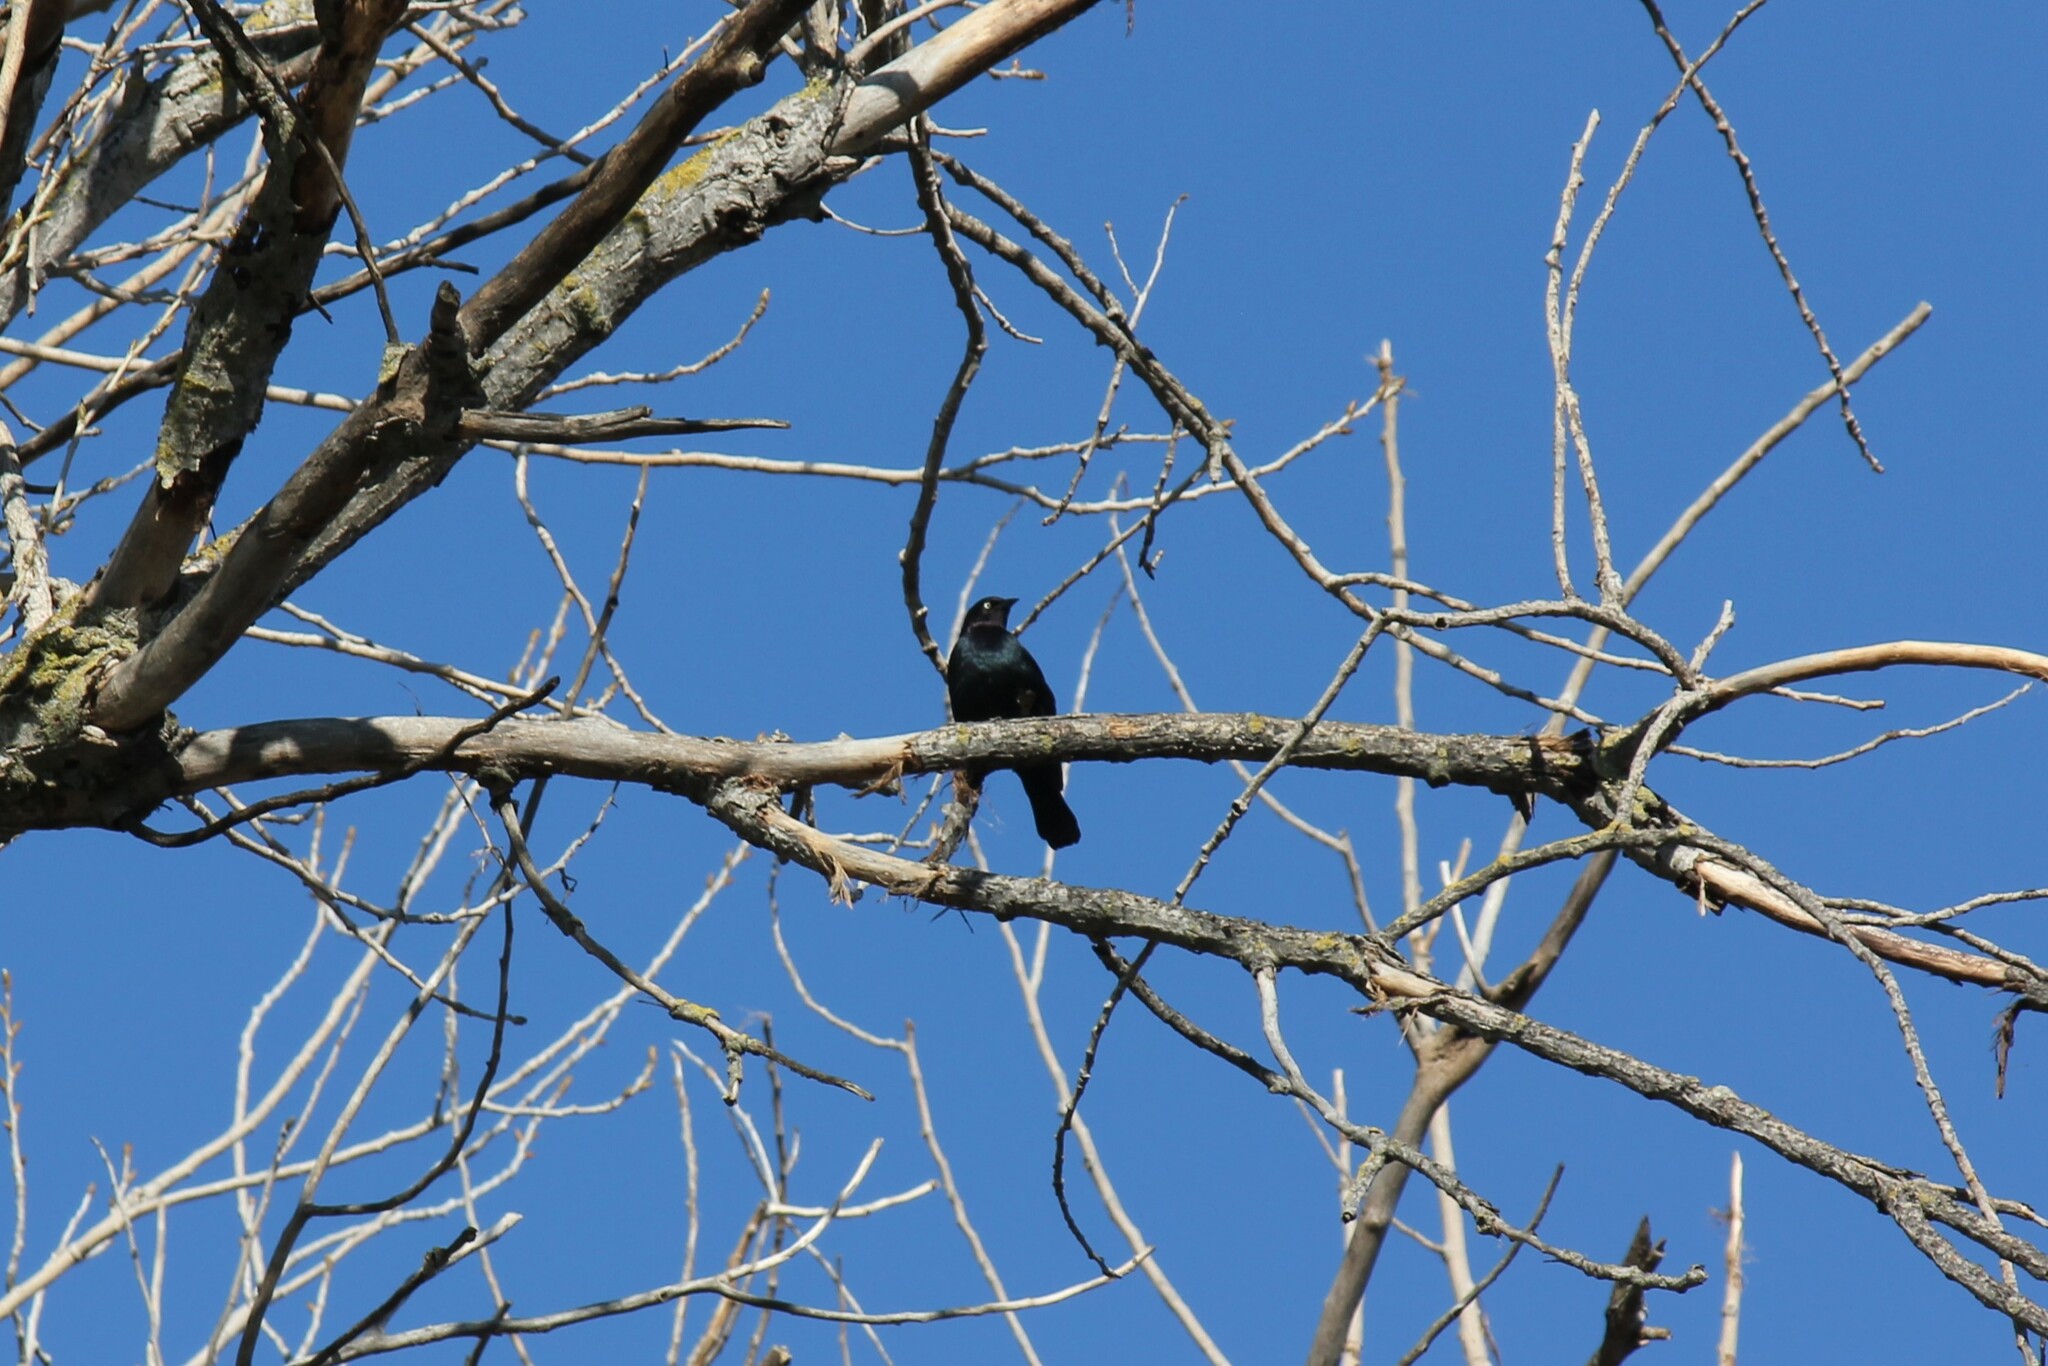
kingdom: Animalia
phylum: Chordata
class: Aves
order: Passeriformes
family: Icteridae
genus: Euphagus
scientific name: Euphagus cyanocephalus
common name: Brewer's blackbird
